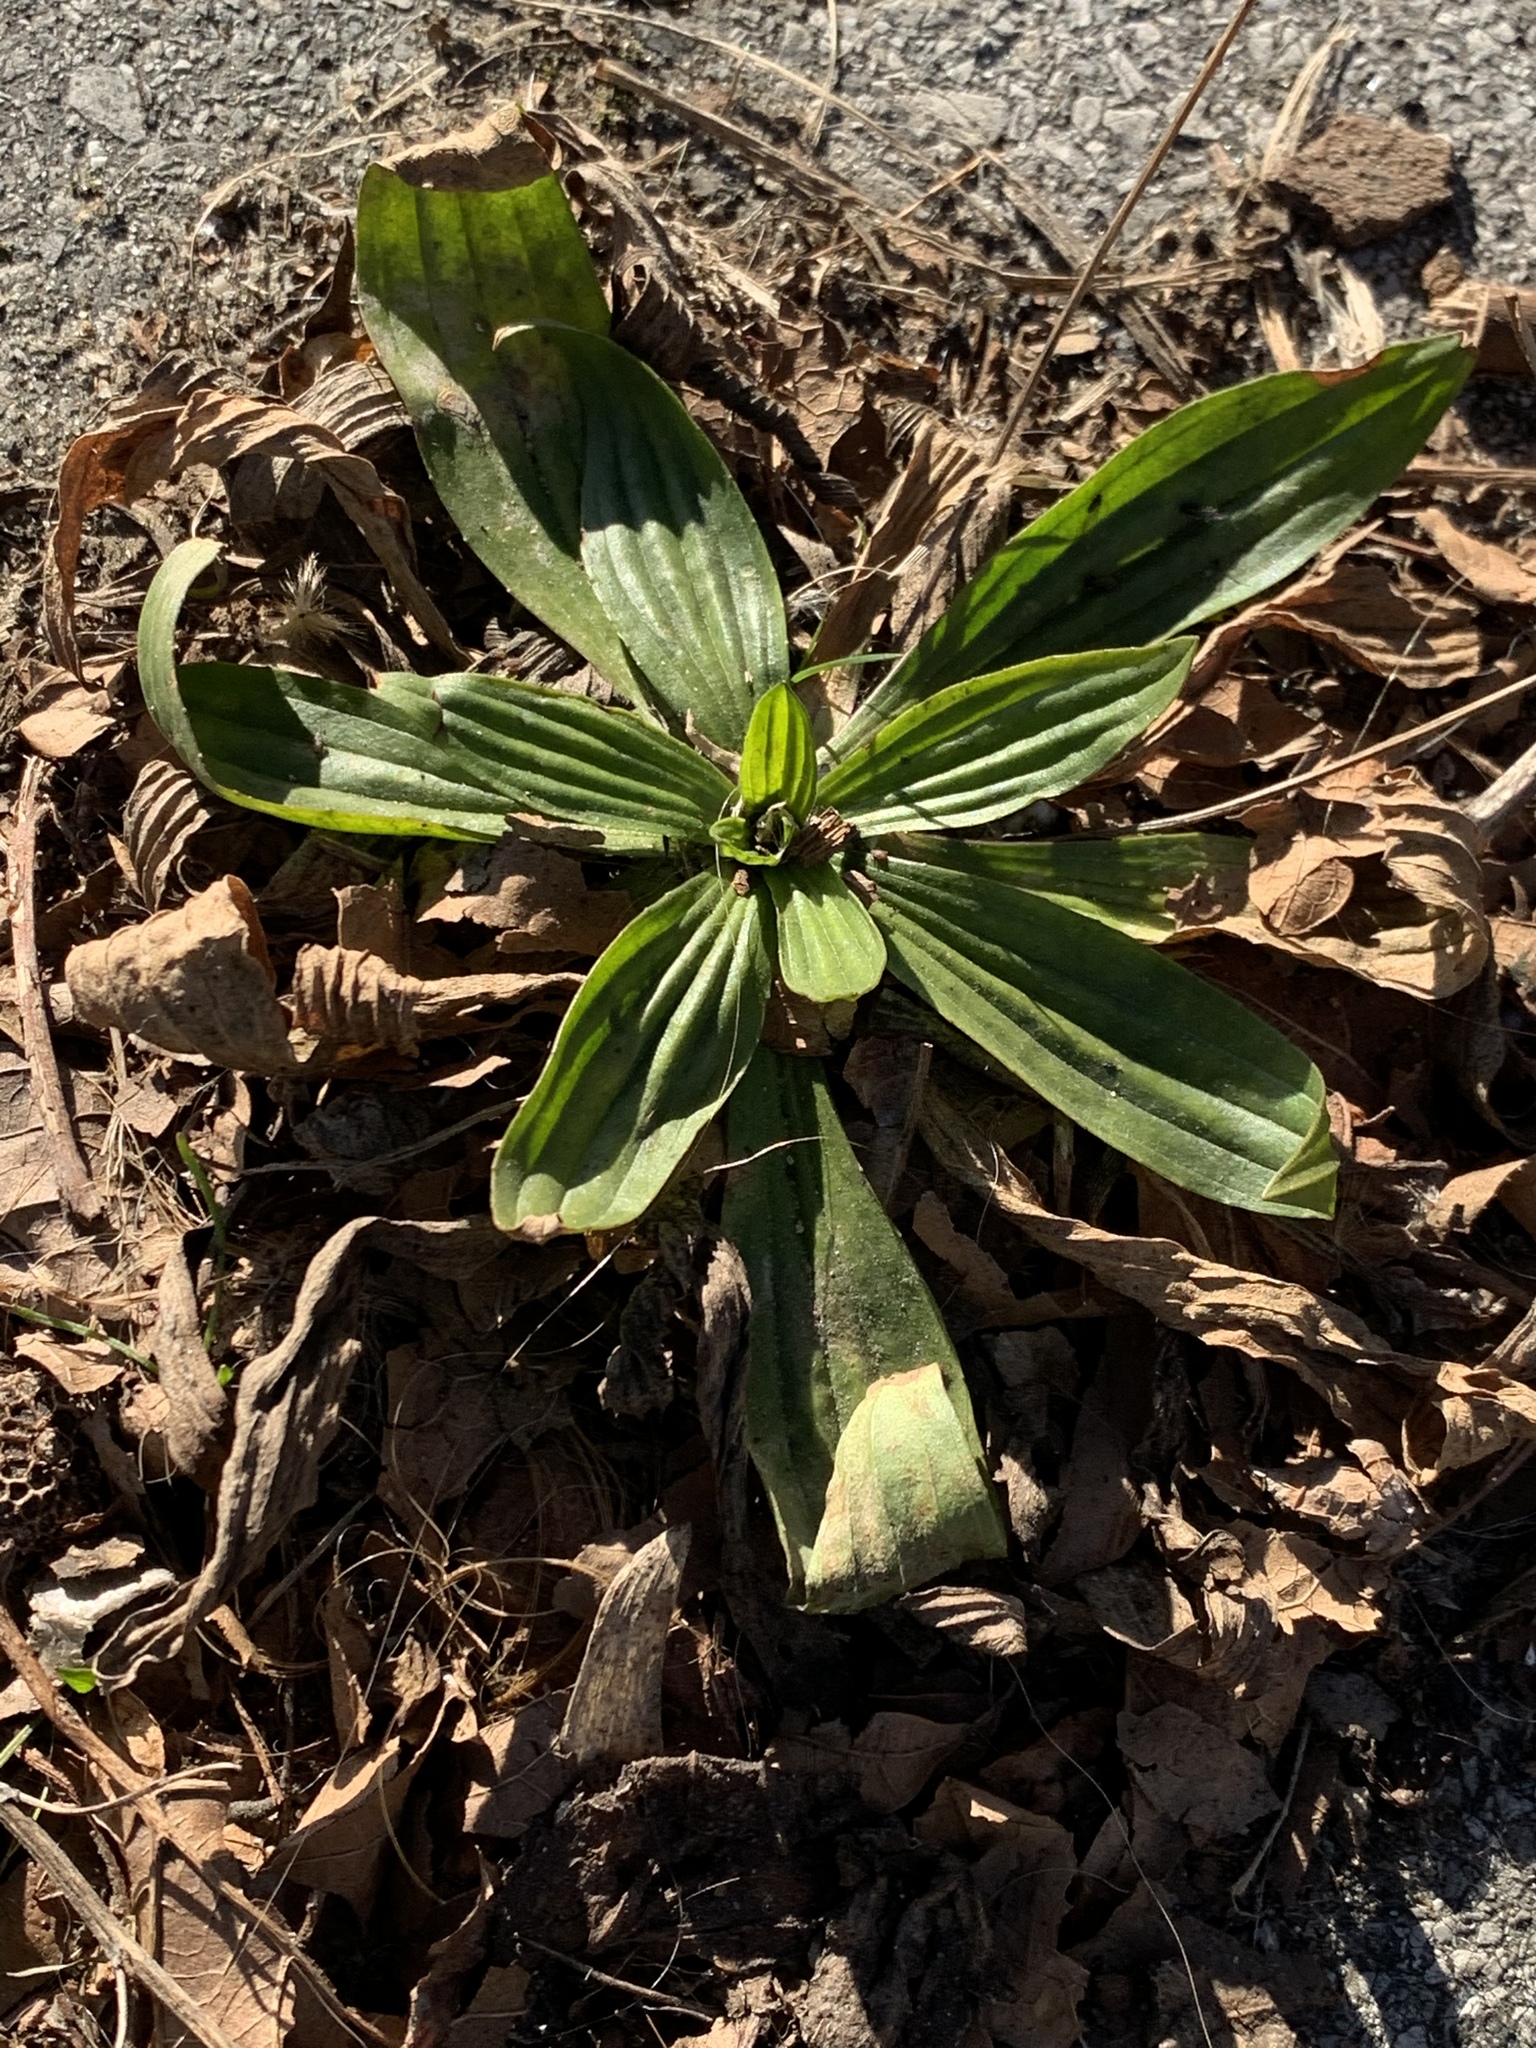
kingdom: Plantae
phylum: Tracheophyta
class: Magnoliopsida
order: Lamiales
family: Plantaginaceae
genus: Plantago
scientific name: Plantago lanceolata
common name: Ribwort plantain
